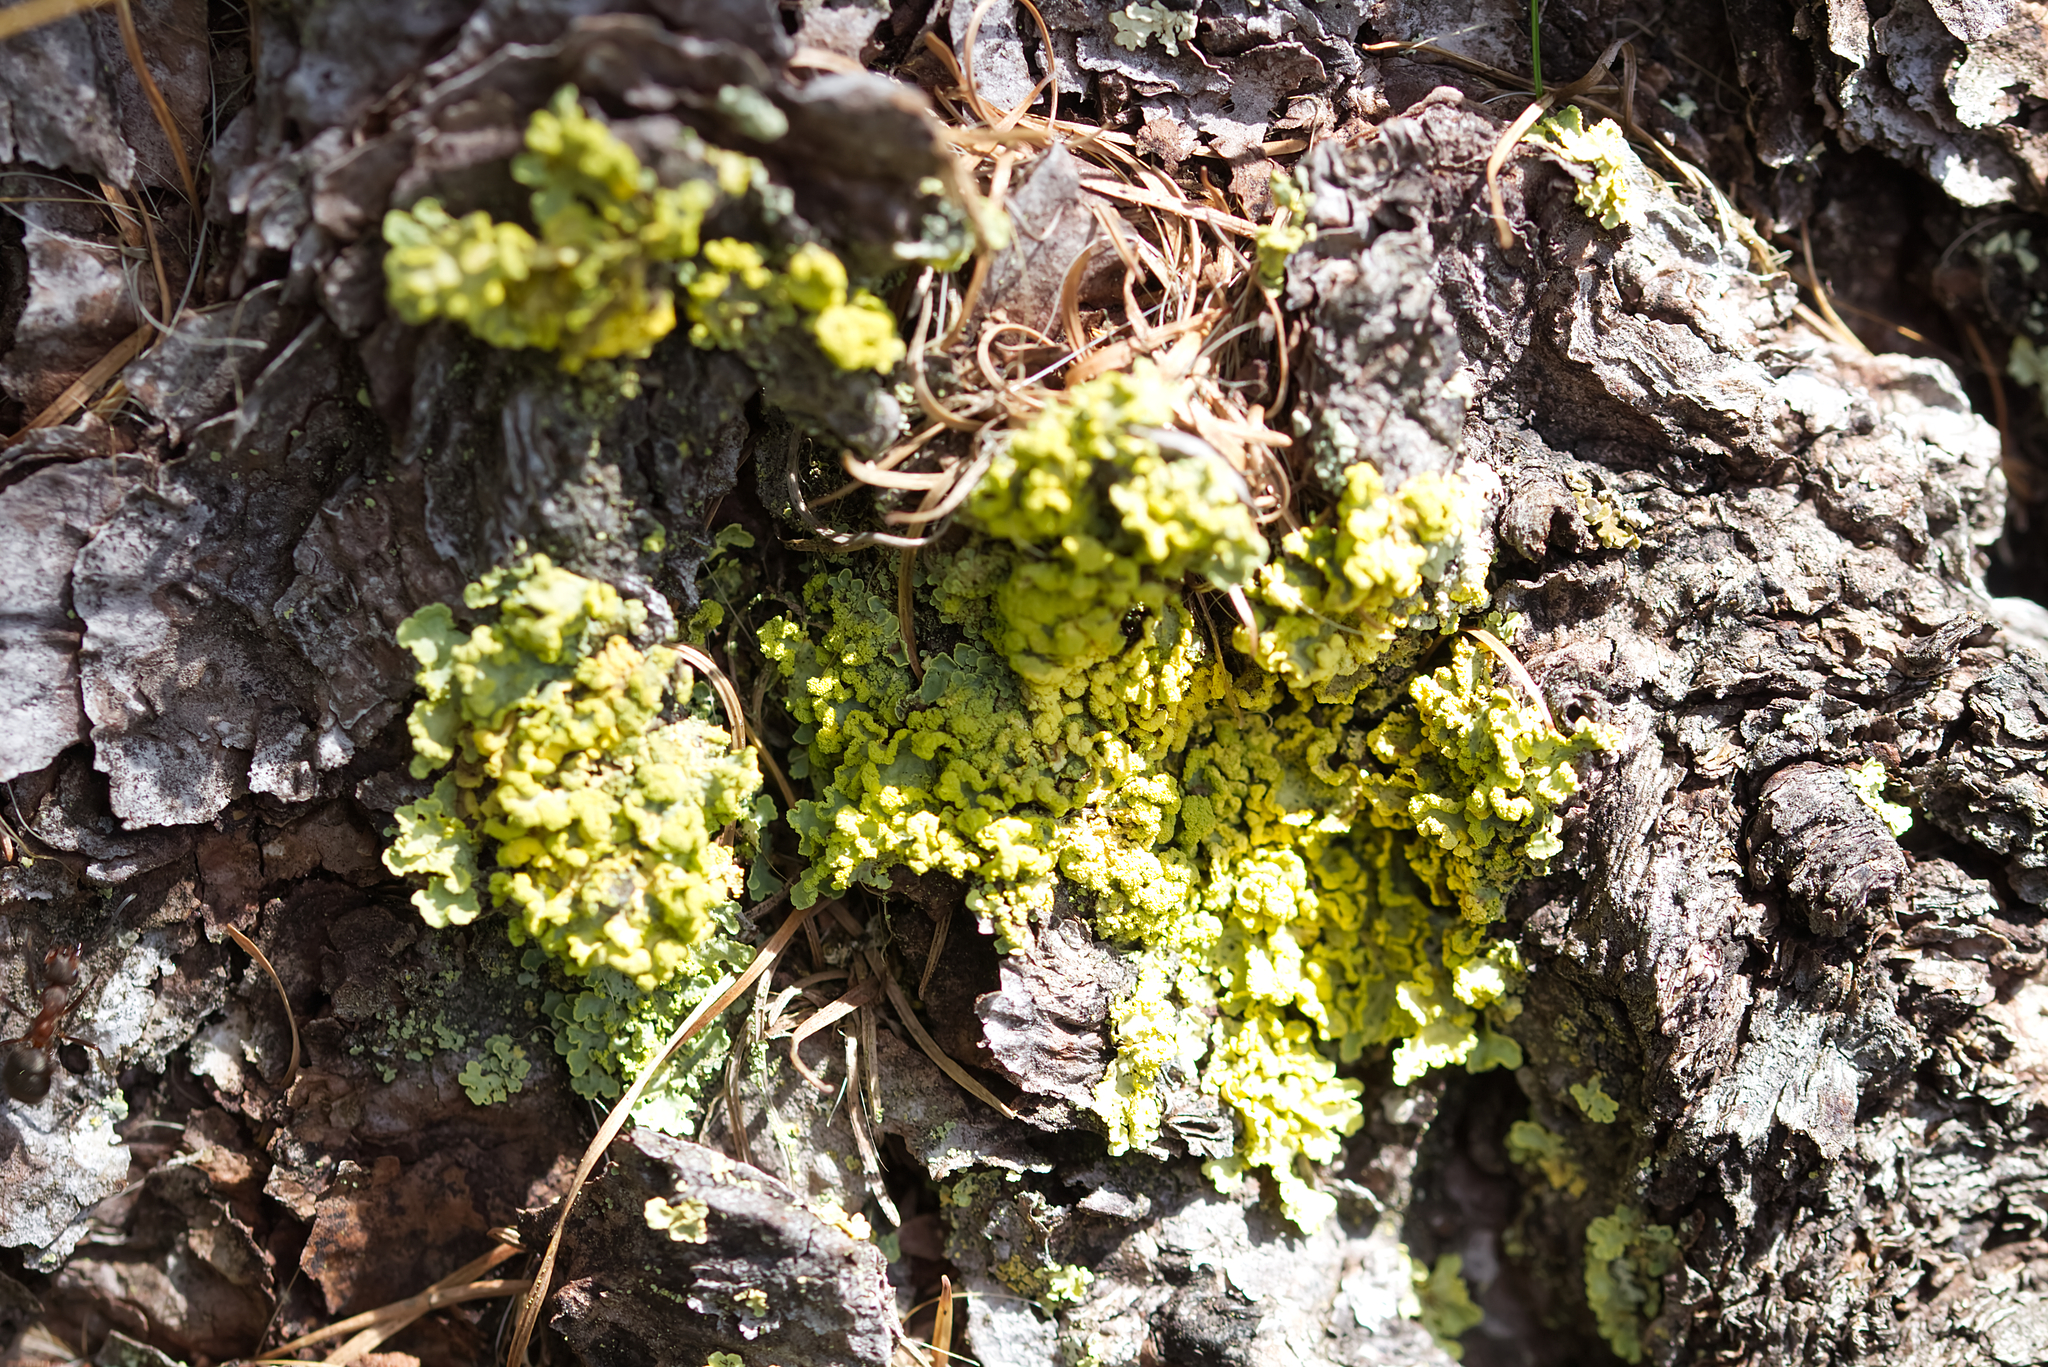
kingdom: Fungi
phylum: Ascomycota
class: Lecanoromycetes
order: Lecanorales
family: Parmeliaceae
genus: Vulpicida
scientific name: Vulpicida pinastri
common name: Powdered sunshine lichen
